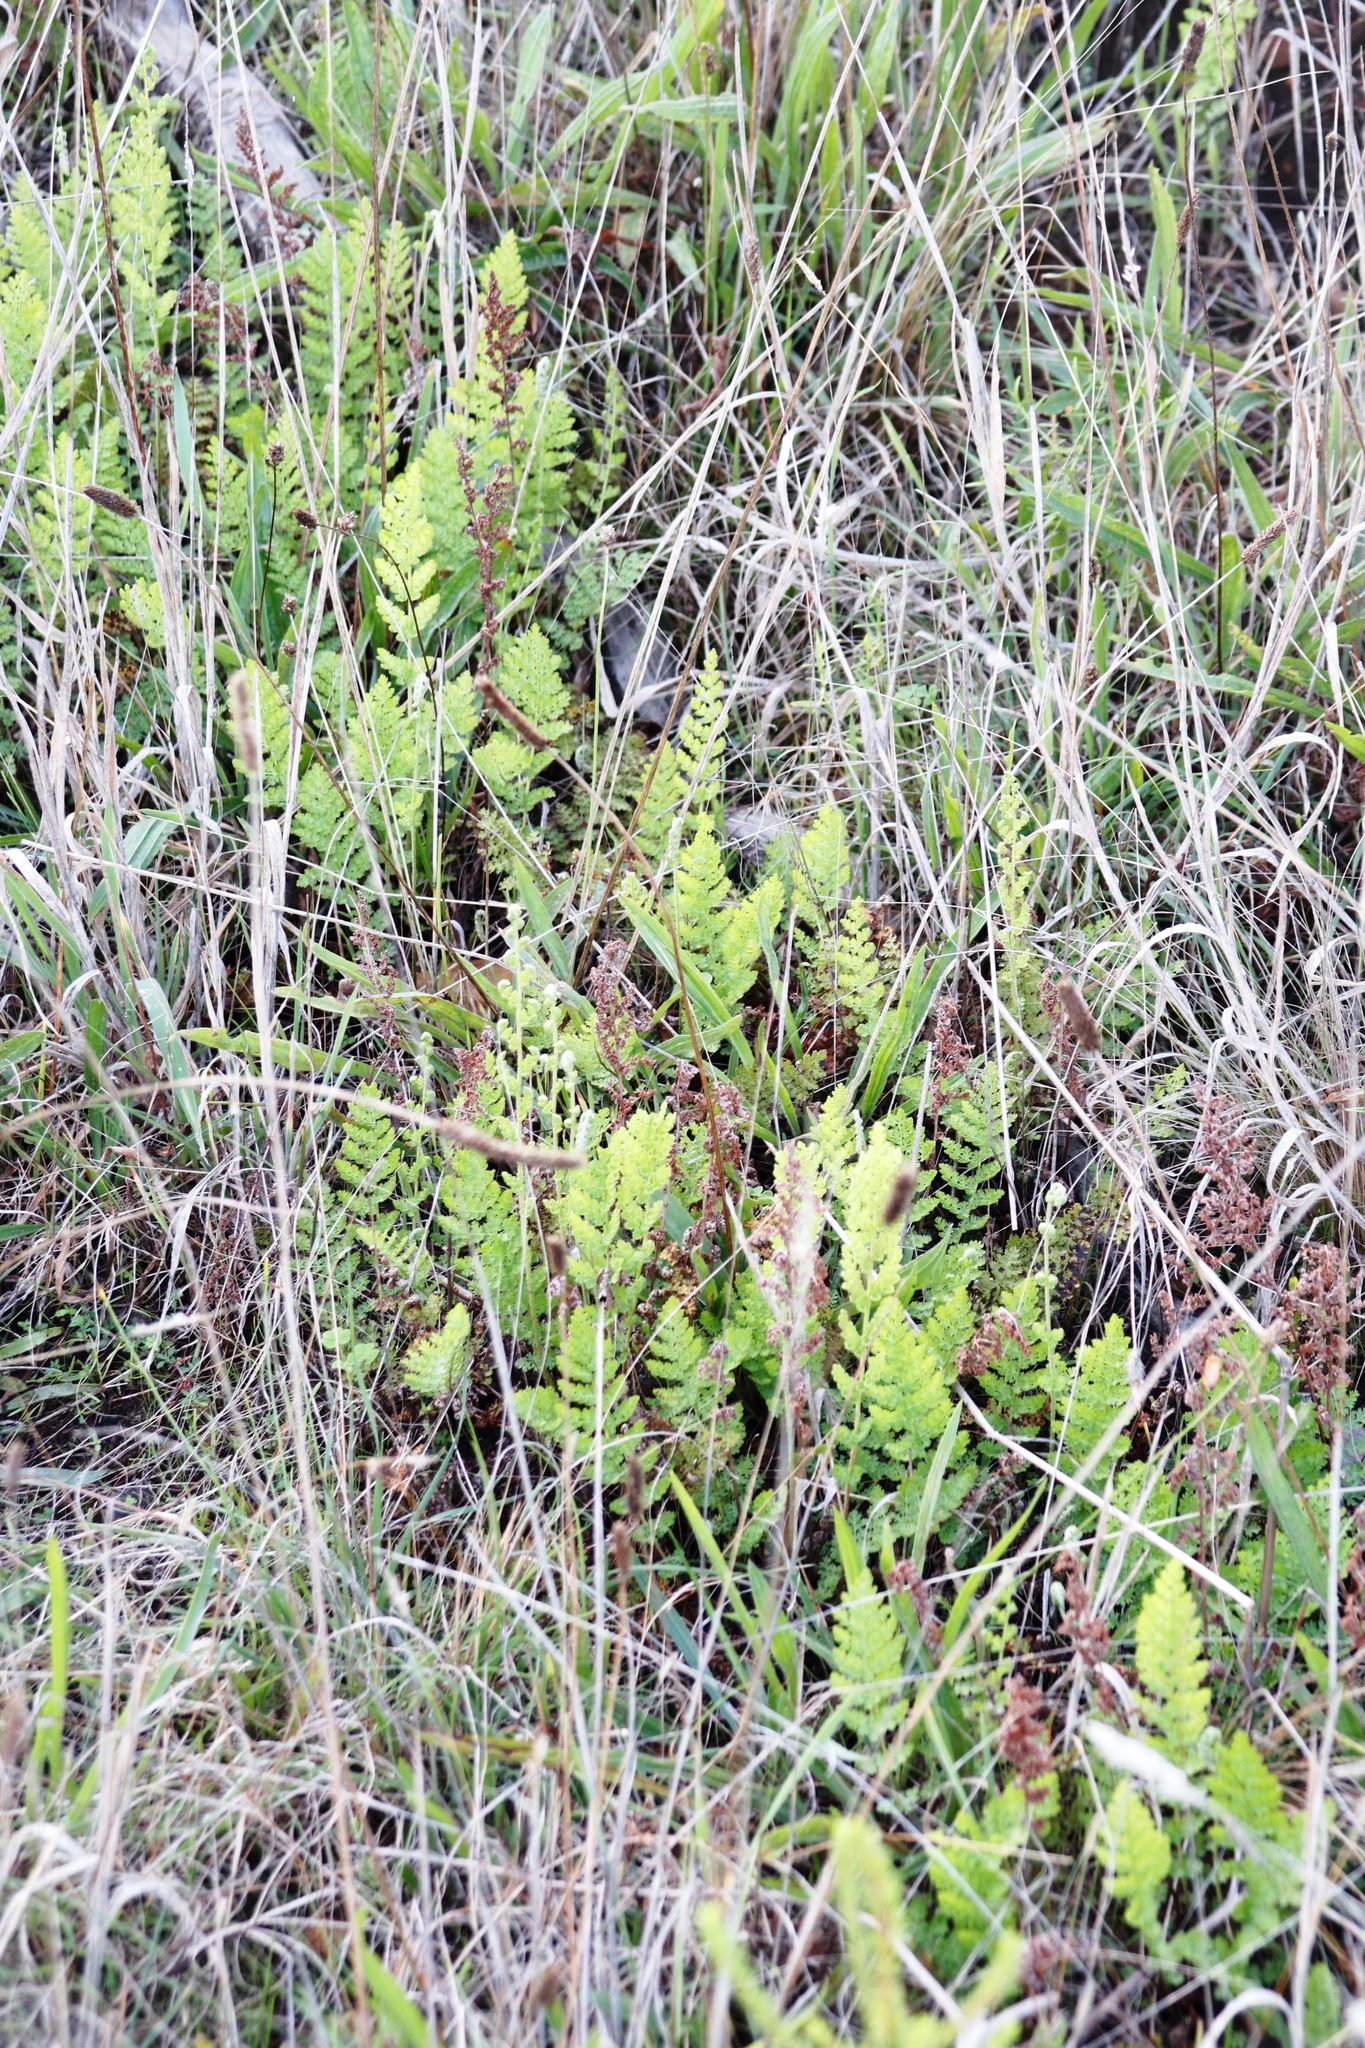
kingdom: Plantae
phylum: Tracheophyta
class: Polypodiopsida
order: Schizaeales
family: Anemiaceae
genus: Anemia
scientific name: Anemia caffrorum
